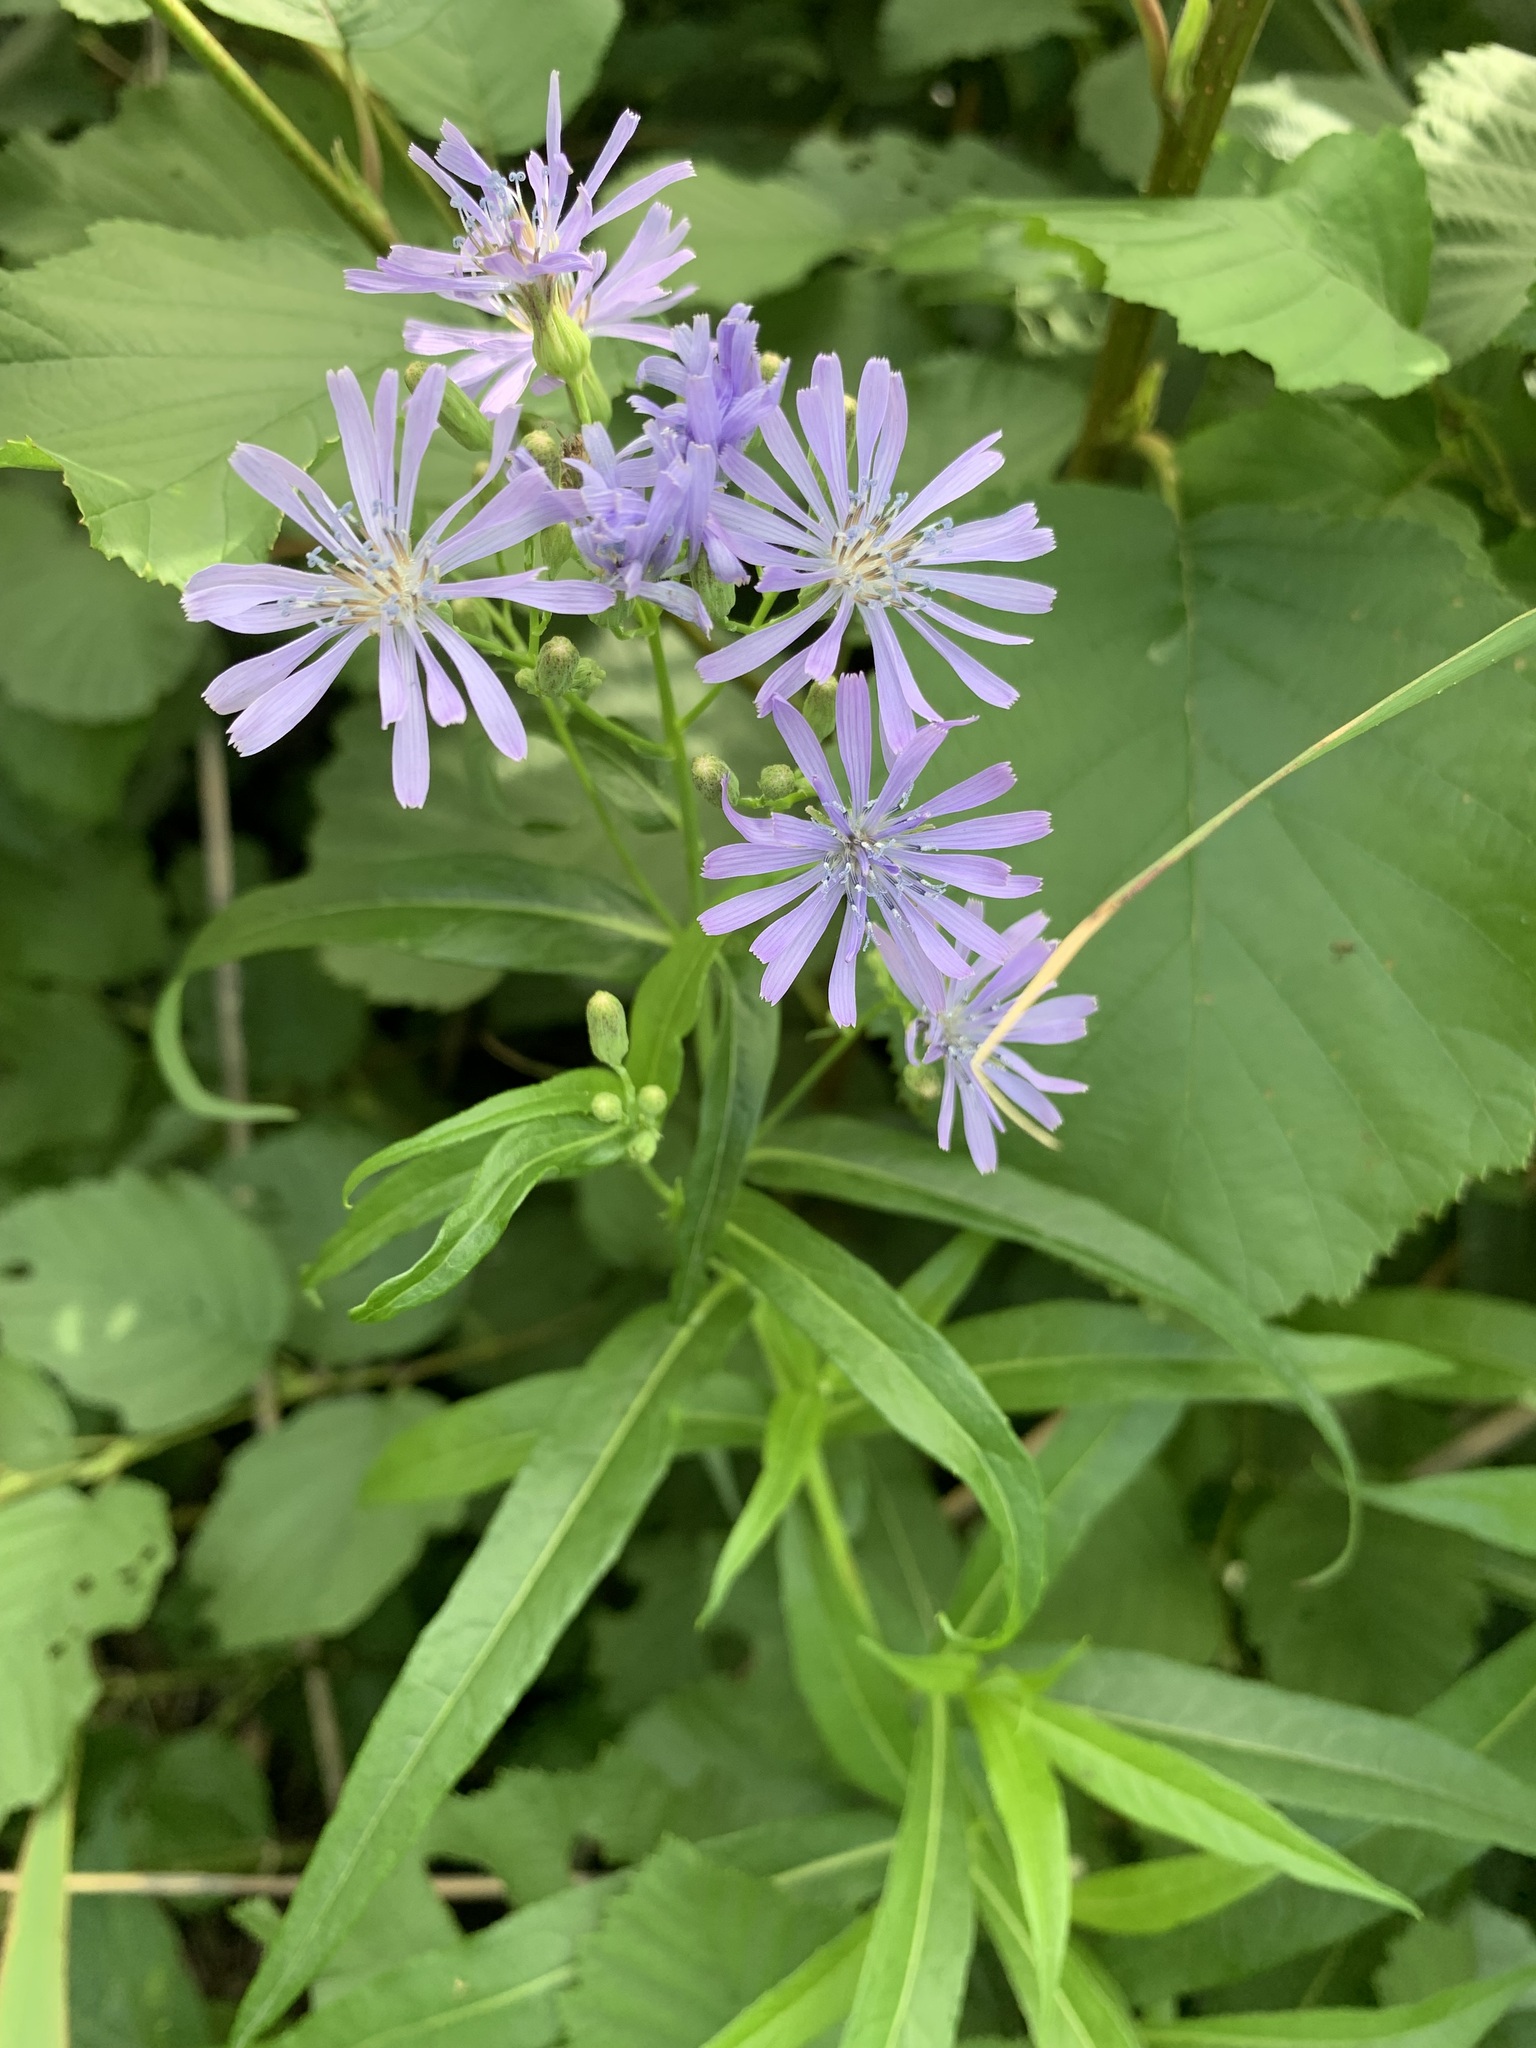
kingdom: Plantae
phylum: Tracheophyta
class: Magnoliopsida
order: Asterales
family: Asteraceae
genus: Lactuca
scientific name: Lactuca sibirica
